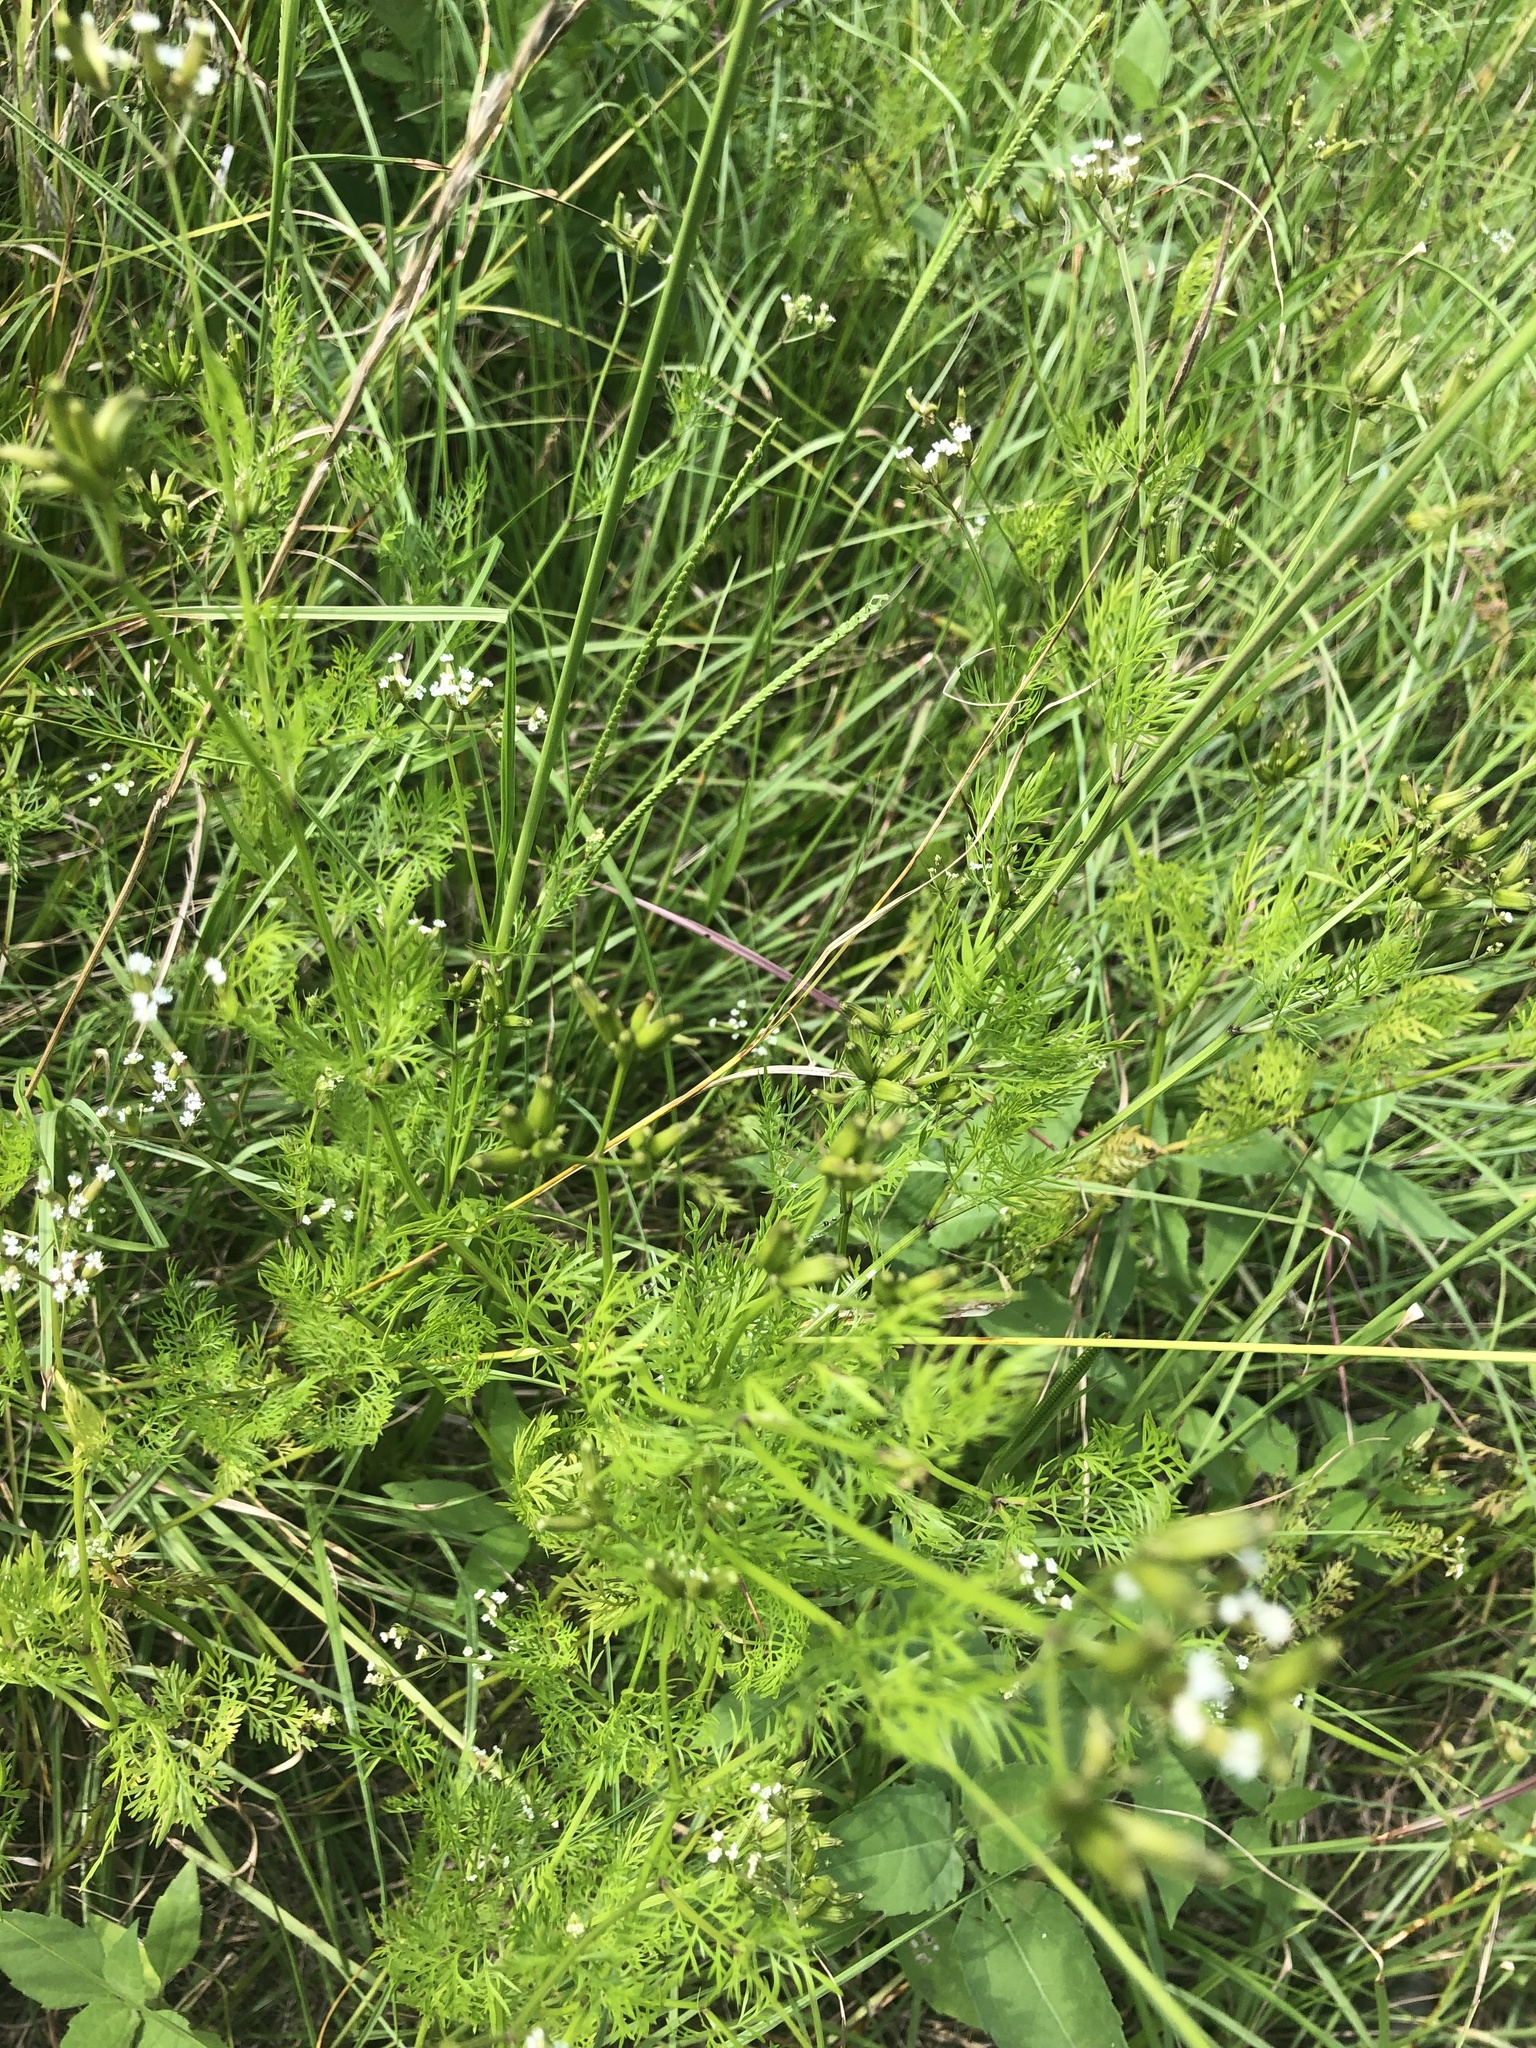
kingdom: Plantae
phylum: Tracheophyta
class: Magnoliopsida
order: Apiales
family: Apiaceae
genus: Trepocarpus
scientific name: Trepocarpus aethusae
